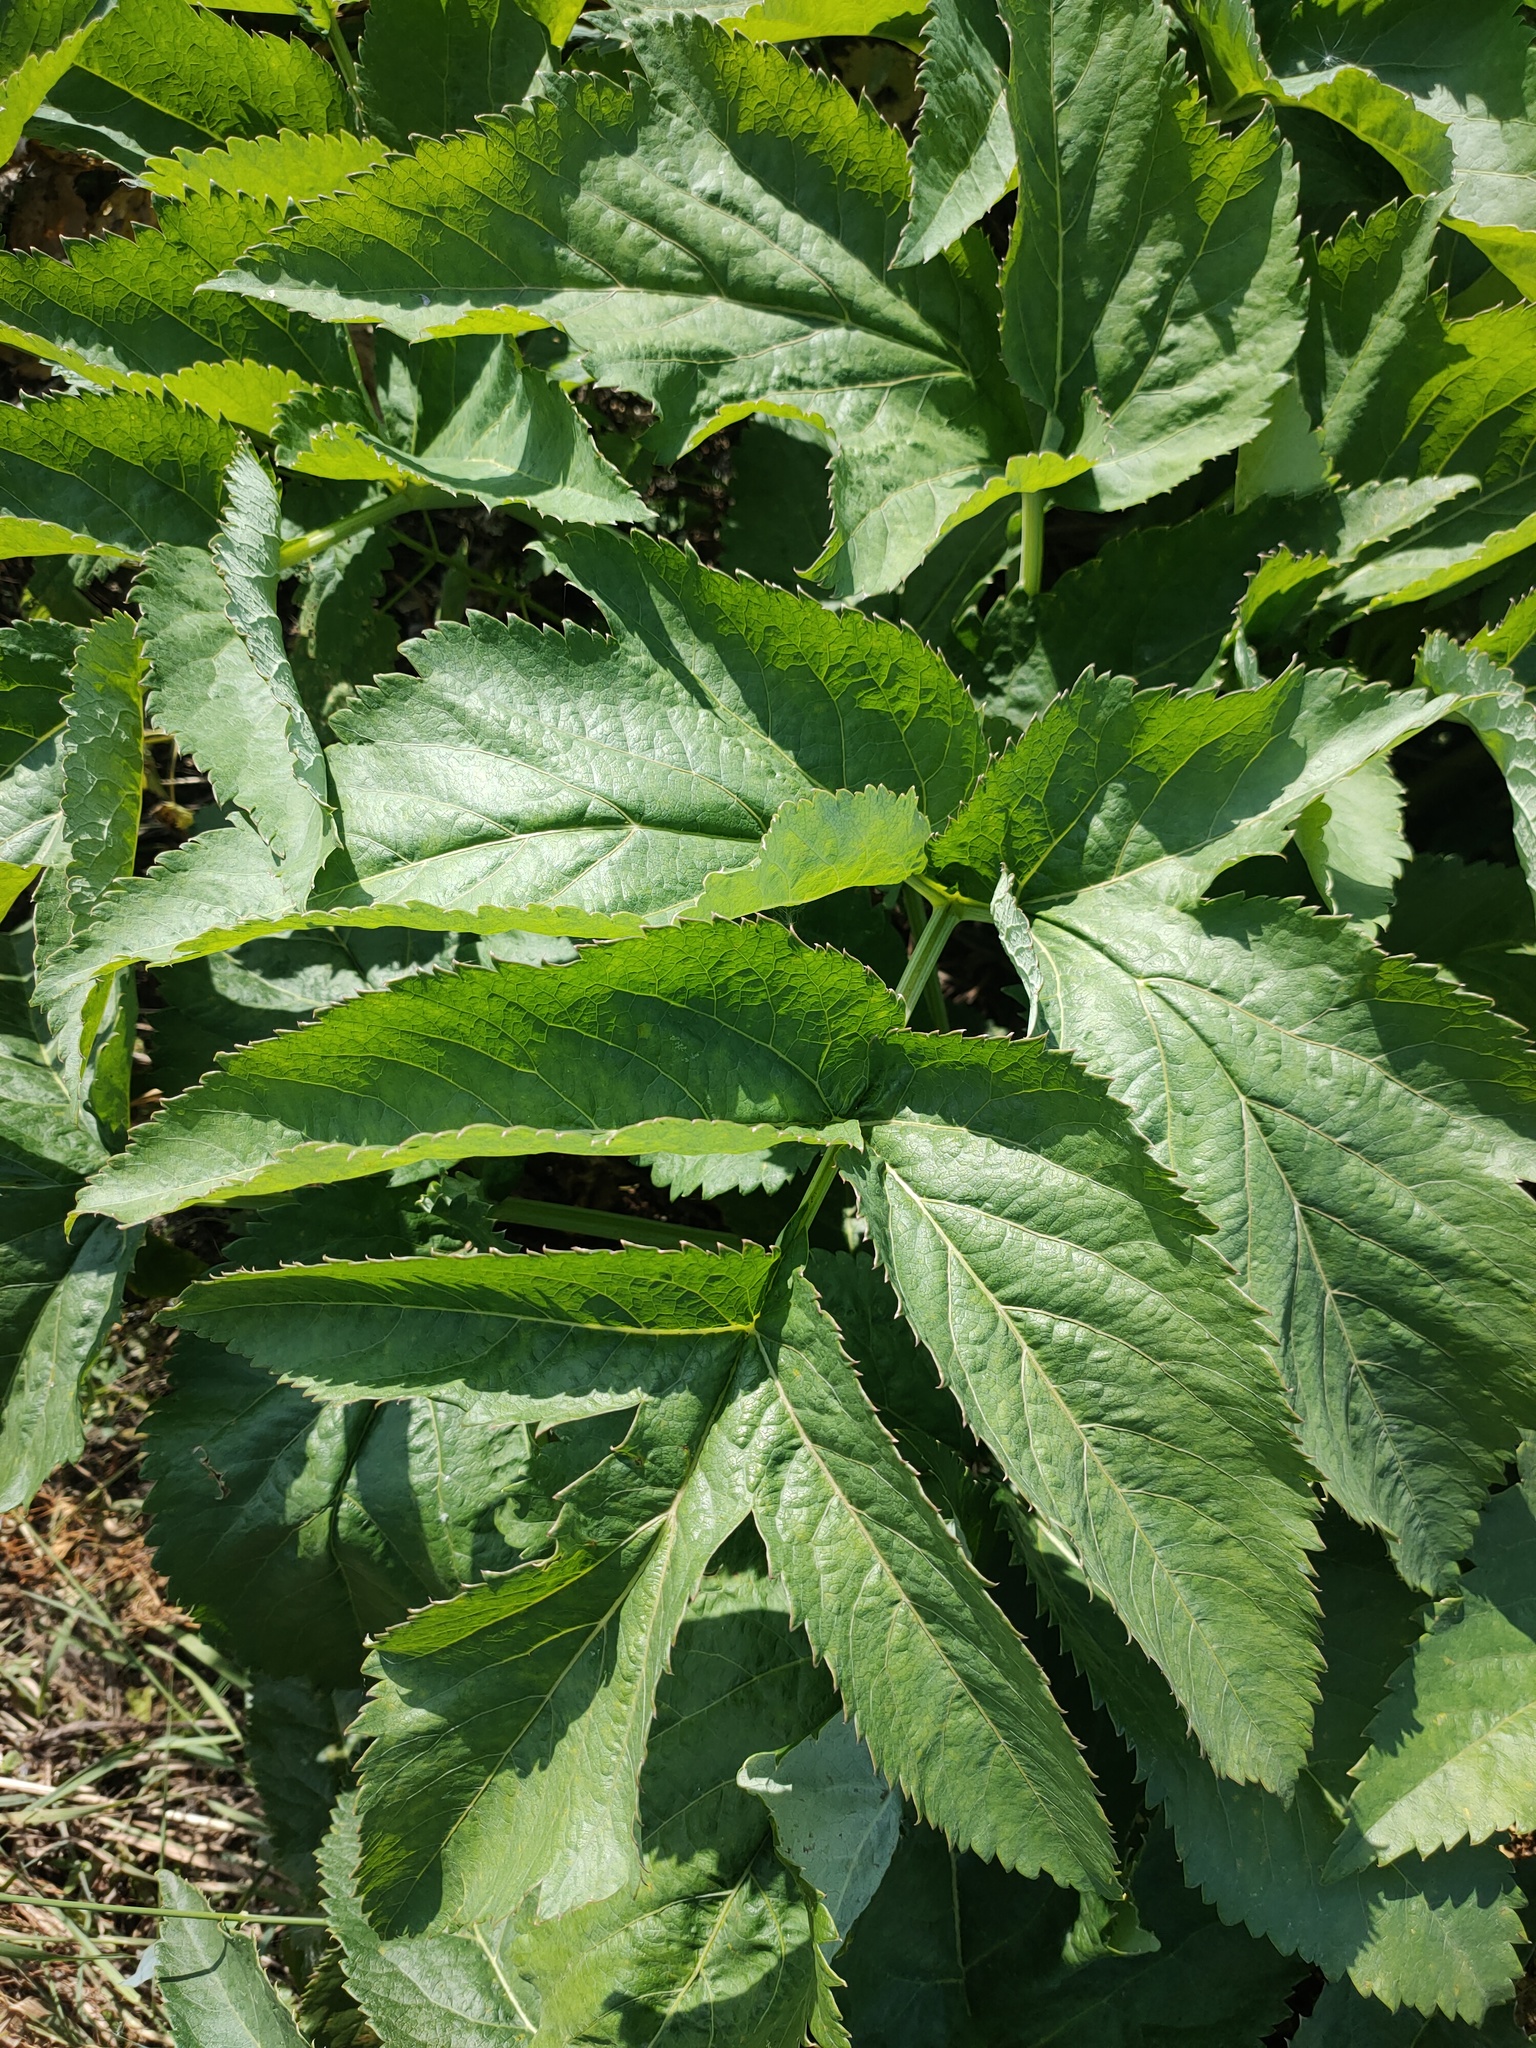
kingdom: Plantae
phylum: Tracheophyta
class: Magnoliopsida
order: Apiales
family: Apiaceae
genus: Angelica
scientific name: Angelica archangelica
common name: Garden angelica
